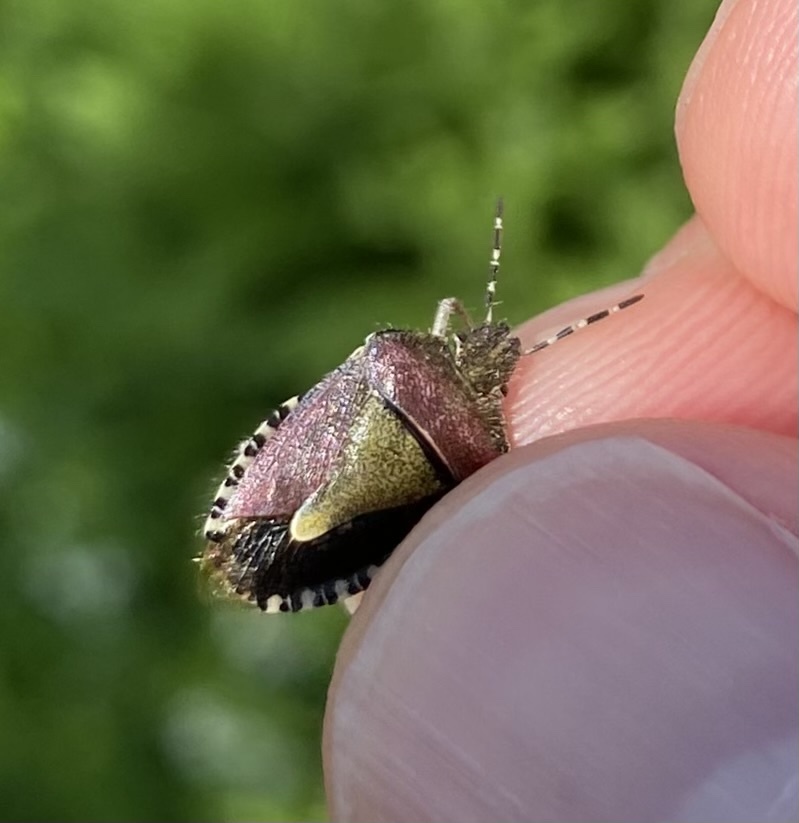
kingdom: Animalia
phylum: Arthropoda
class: Insecta
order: Hemiptera
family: Pentatomidae
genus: Dolycoris
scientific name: Dolycoris baccarum
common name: Sloe bug
